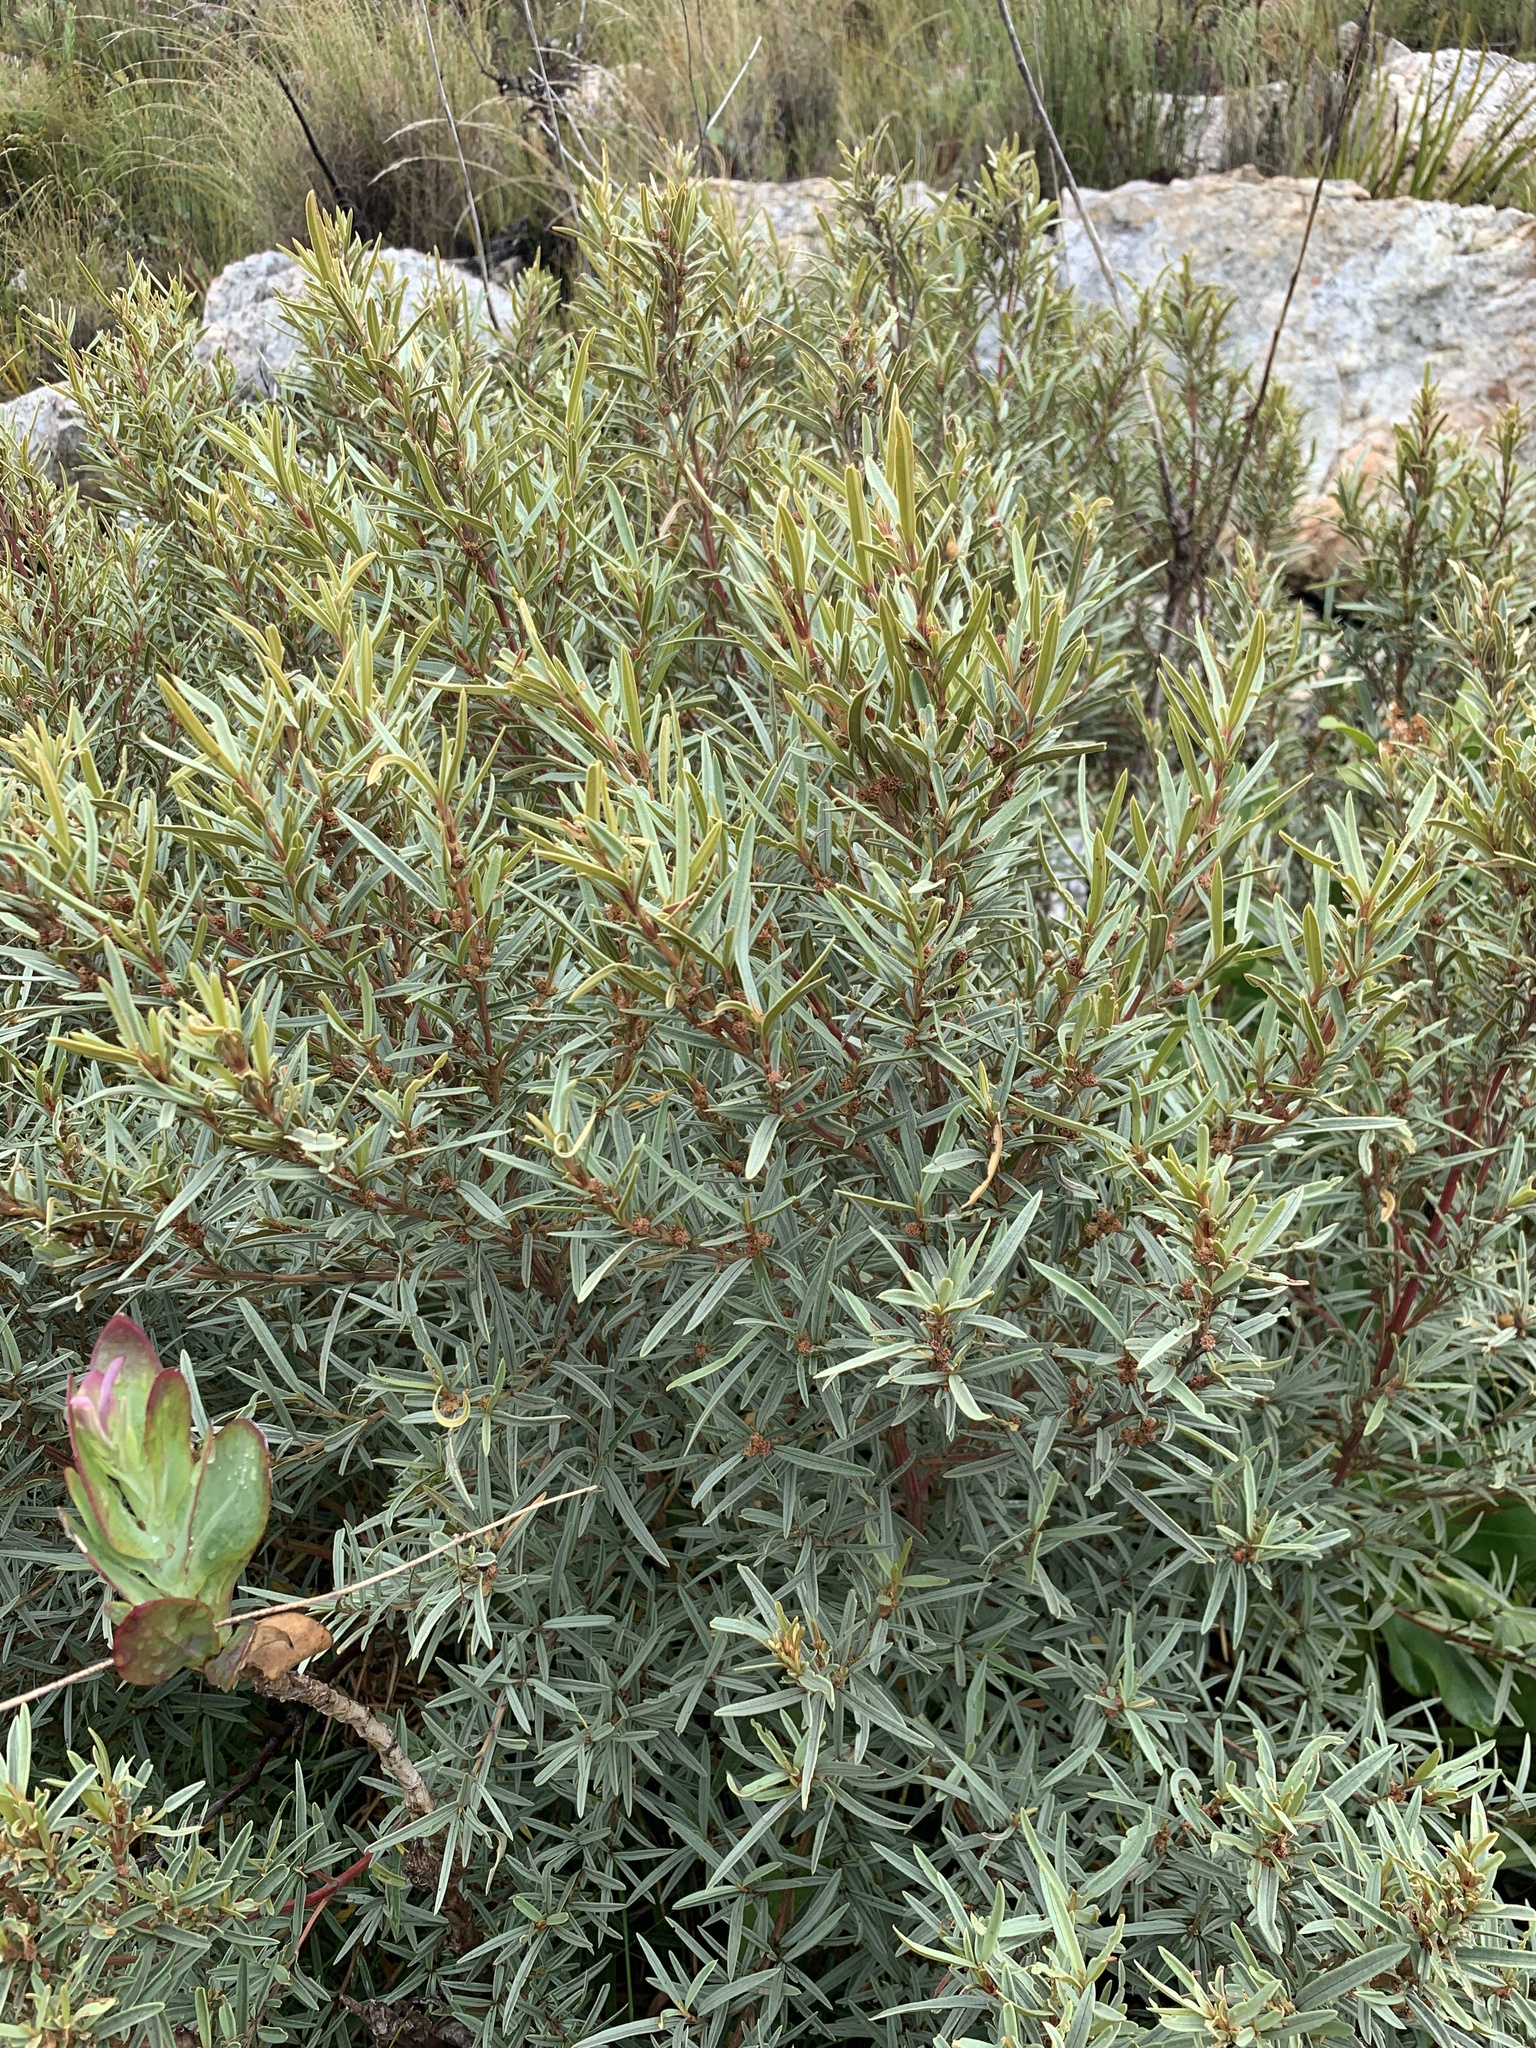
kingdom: Plantae
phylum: Tracheophyta
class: Magnoliopsida
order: Cornales
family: Grubbiaceae
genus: Grubbia
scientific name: Grubbia tomentosa
